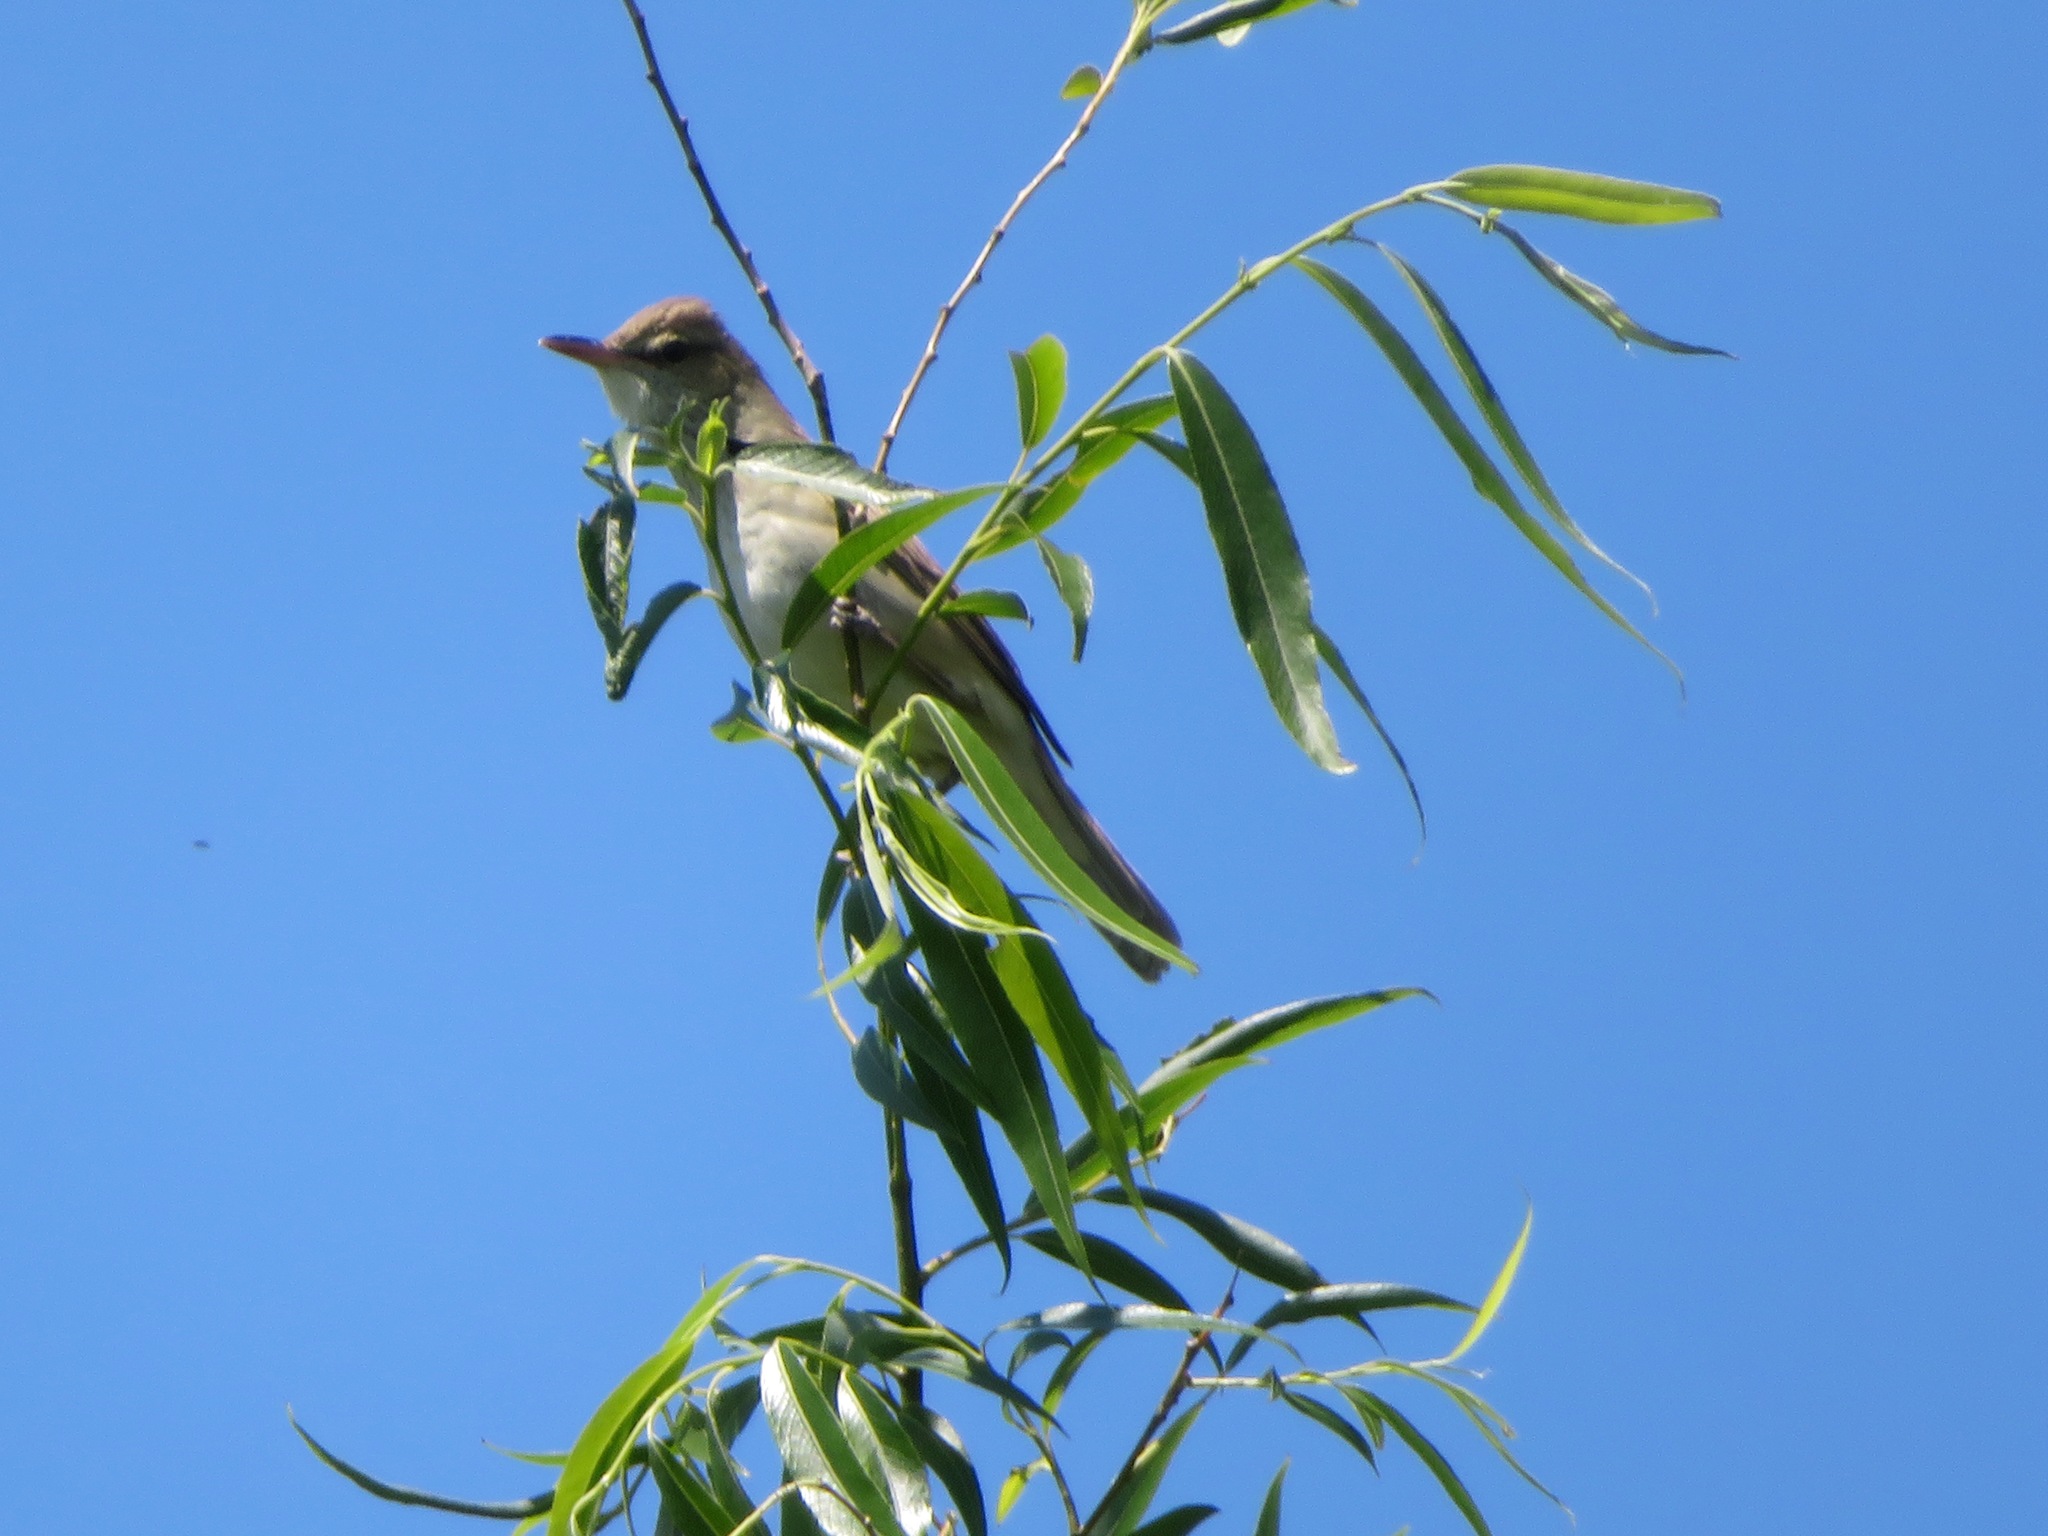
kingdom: Animalia
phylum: Chordata
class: Aves
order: Passeriformes
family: Acrocephalidae
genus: Acrocephalus
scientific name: Acrocephalus orientalis
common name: Oriental reed warbler
